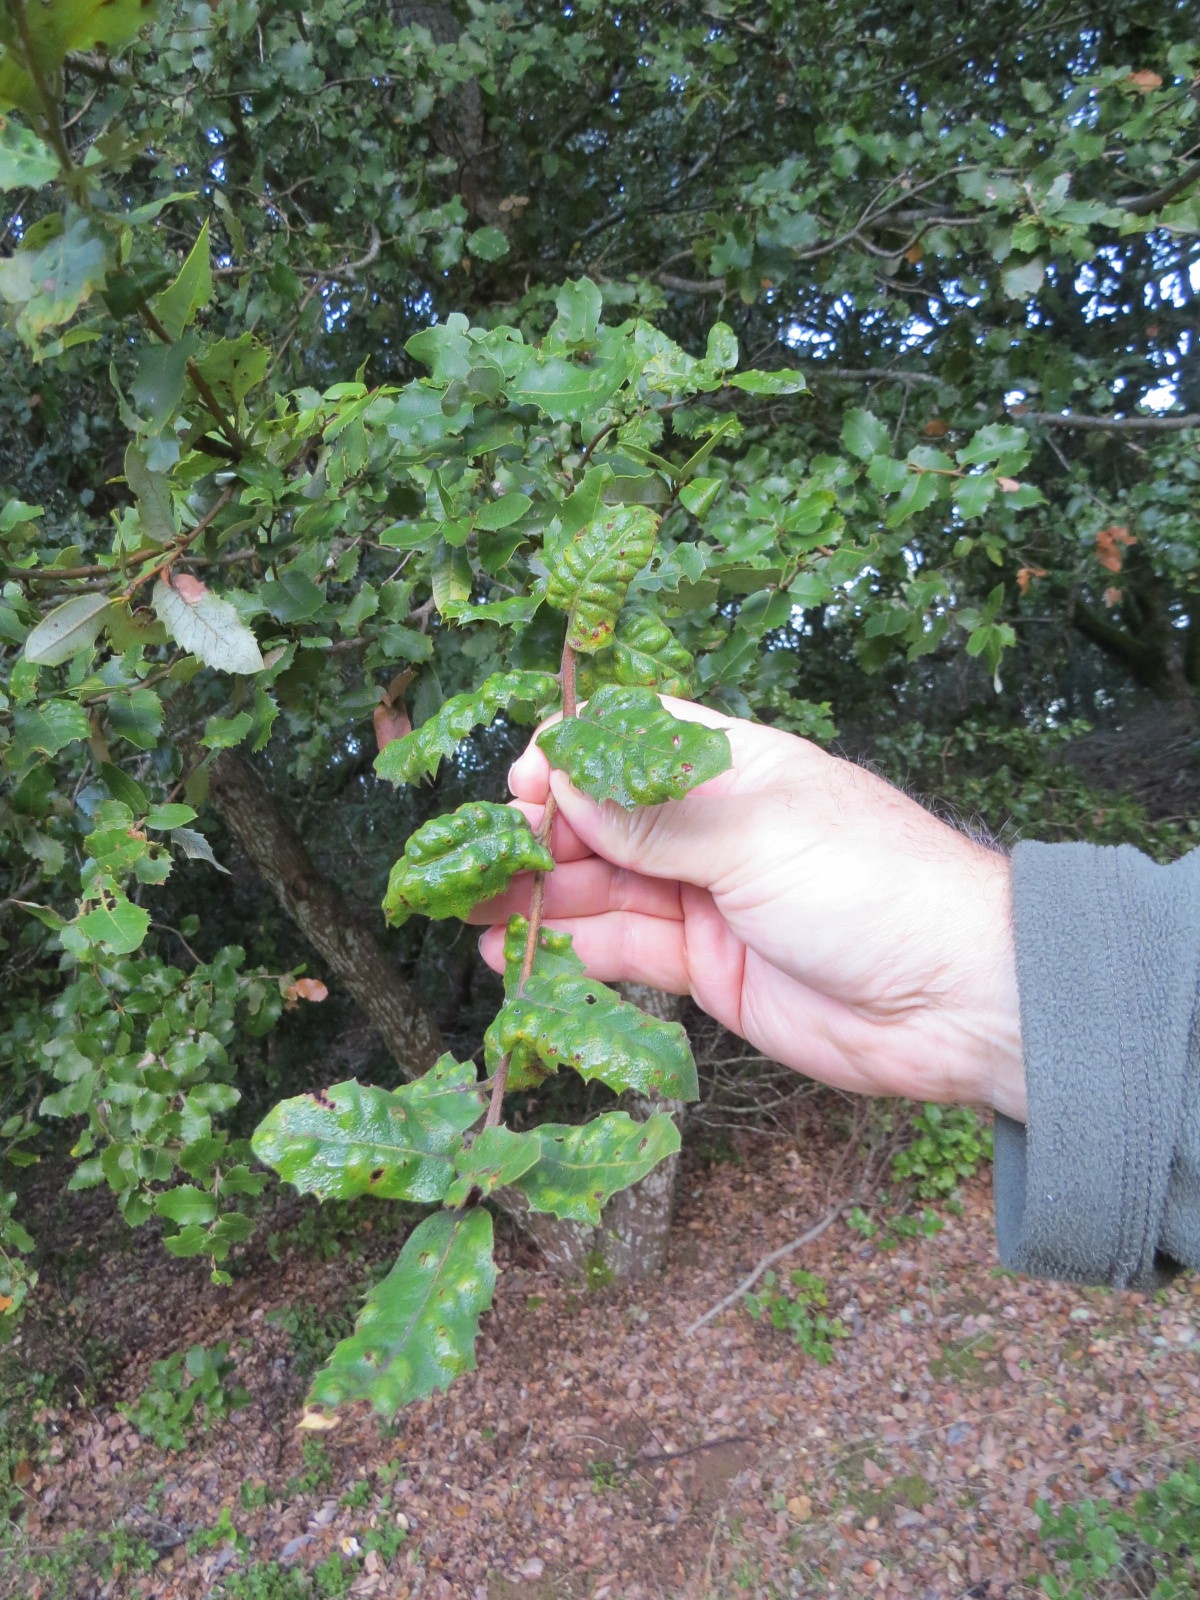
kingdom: Animalia
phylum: Arthropoda
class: Arachnida
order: Trombidiformes
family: Eriophyidae
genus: Aceria
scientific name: Aceria
